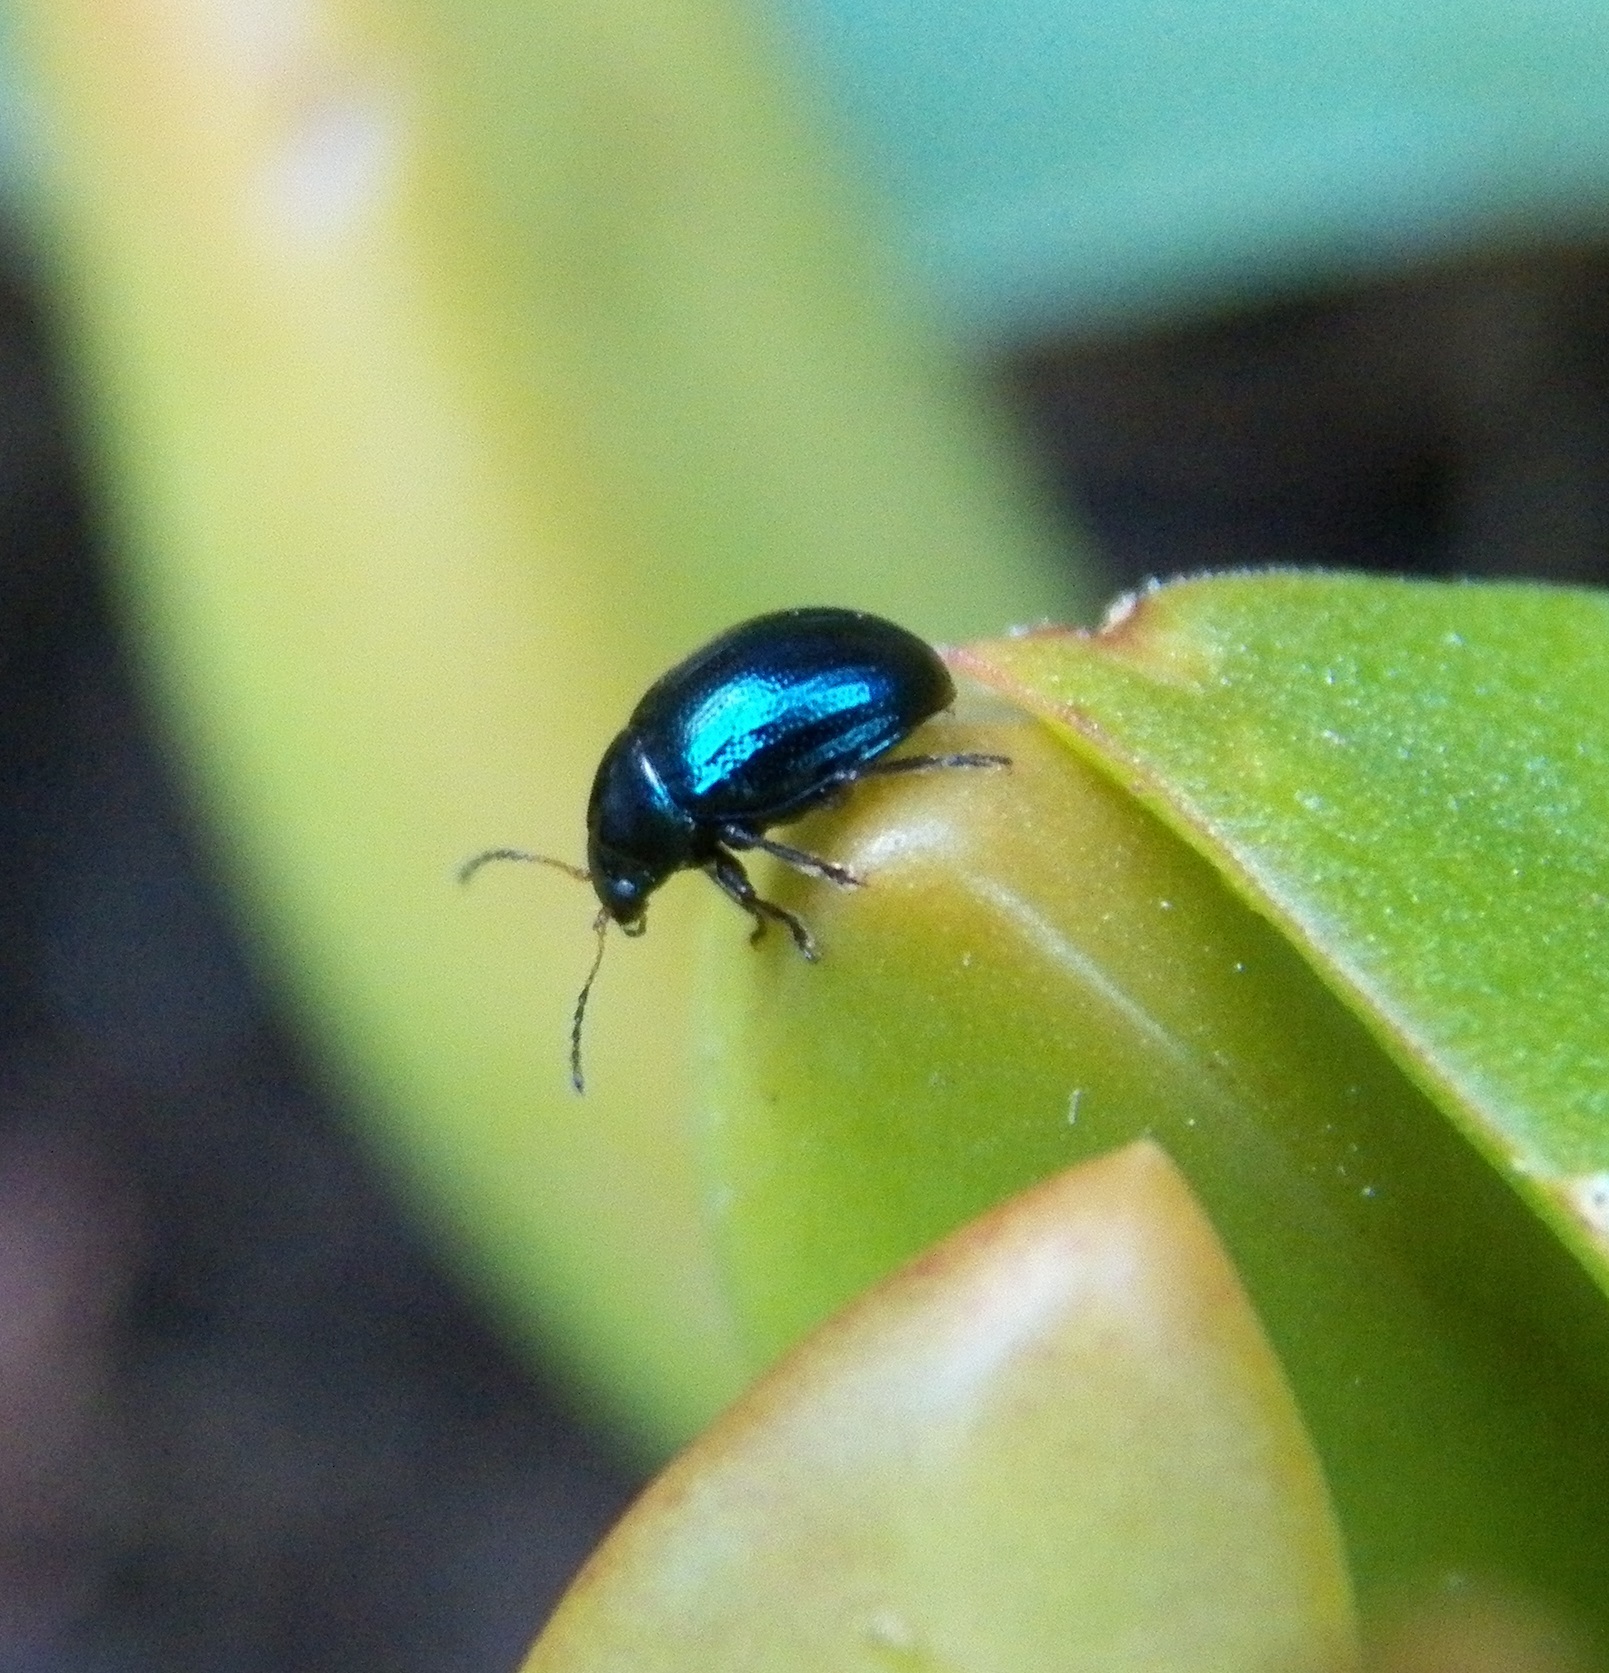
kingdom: Animalia
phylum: Arthropoda
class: Insecta
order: Coleoptera
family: Chrysomelidae
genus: Typophorus
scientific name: Typophorus nigritus
